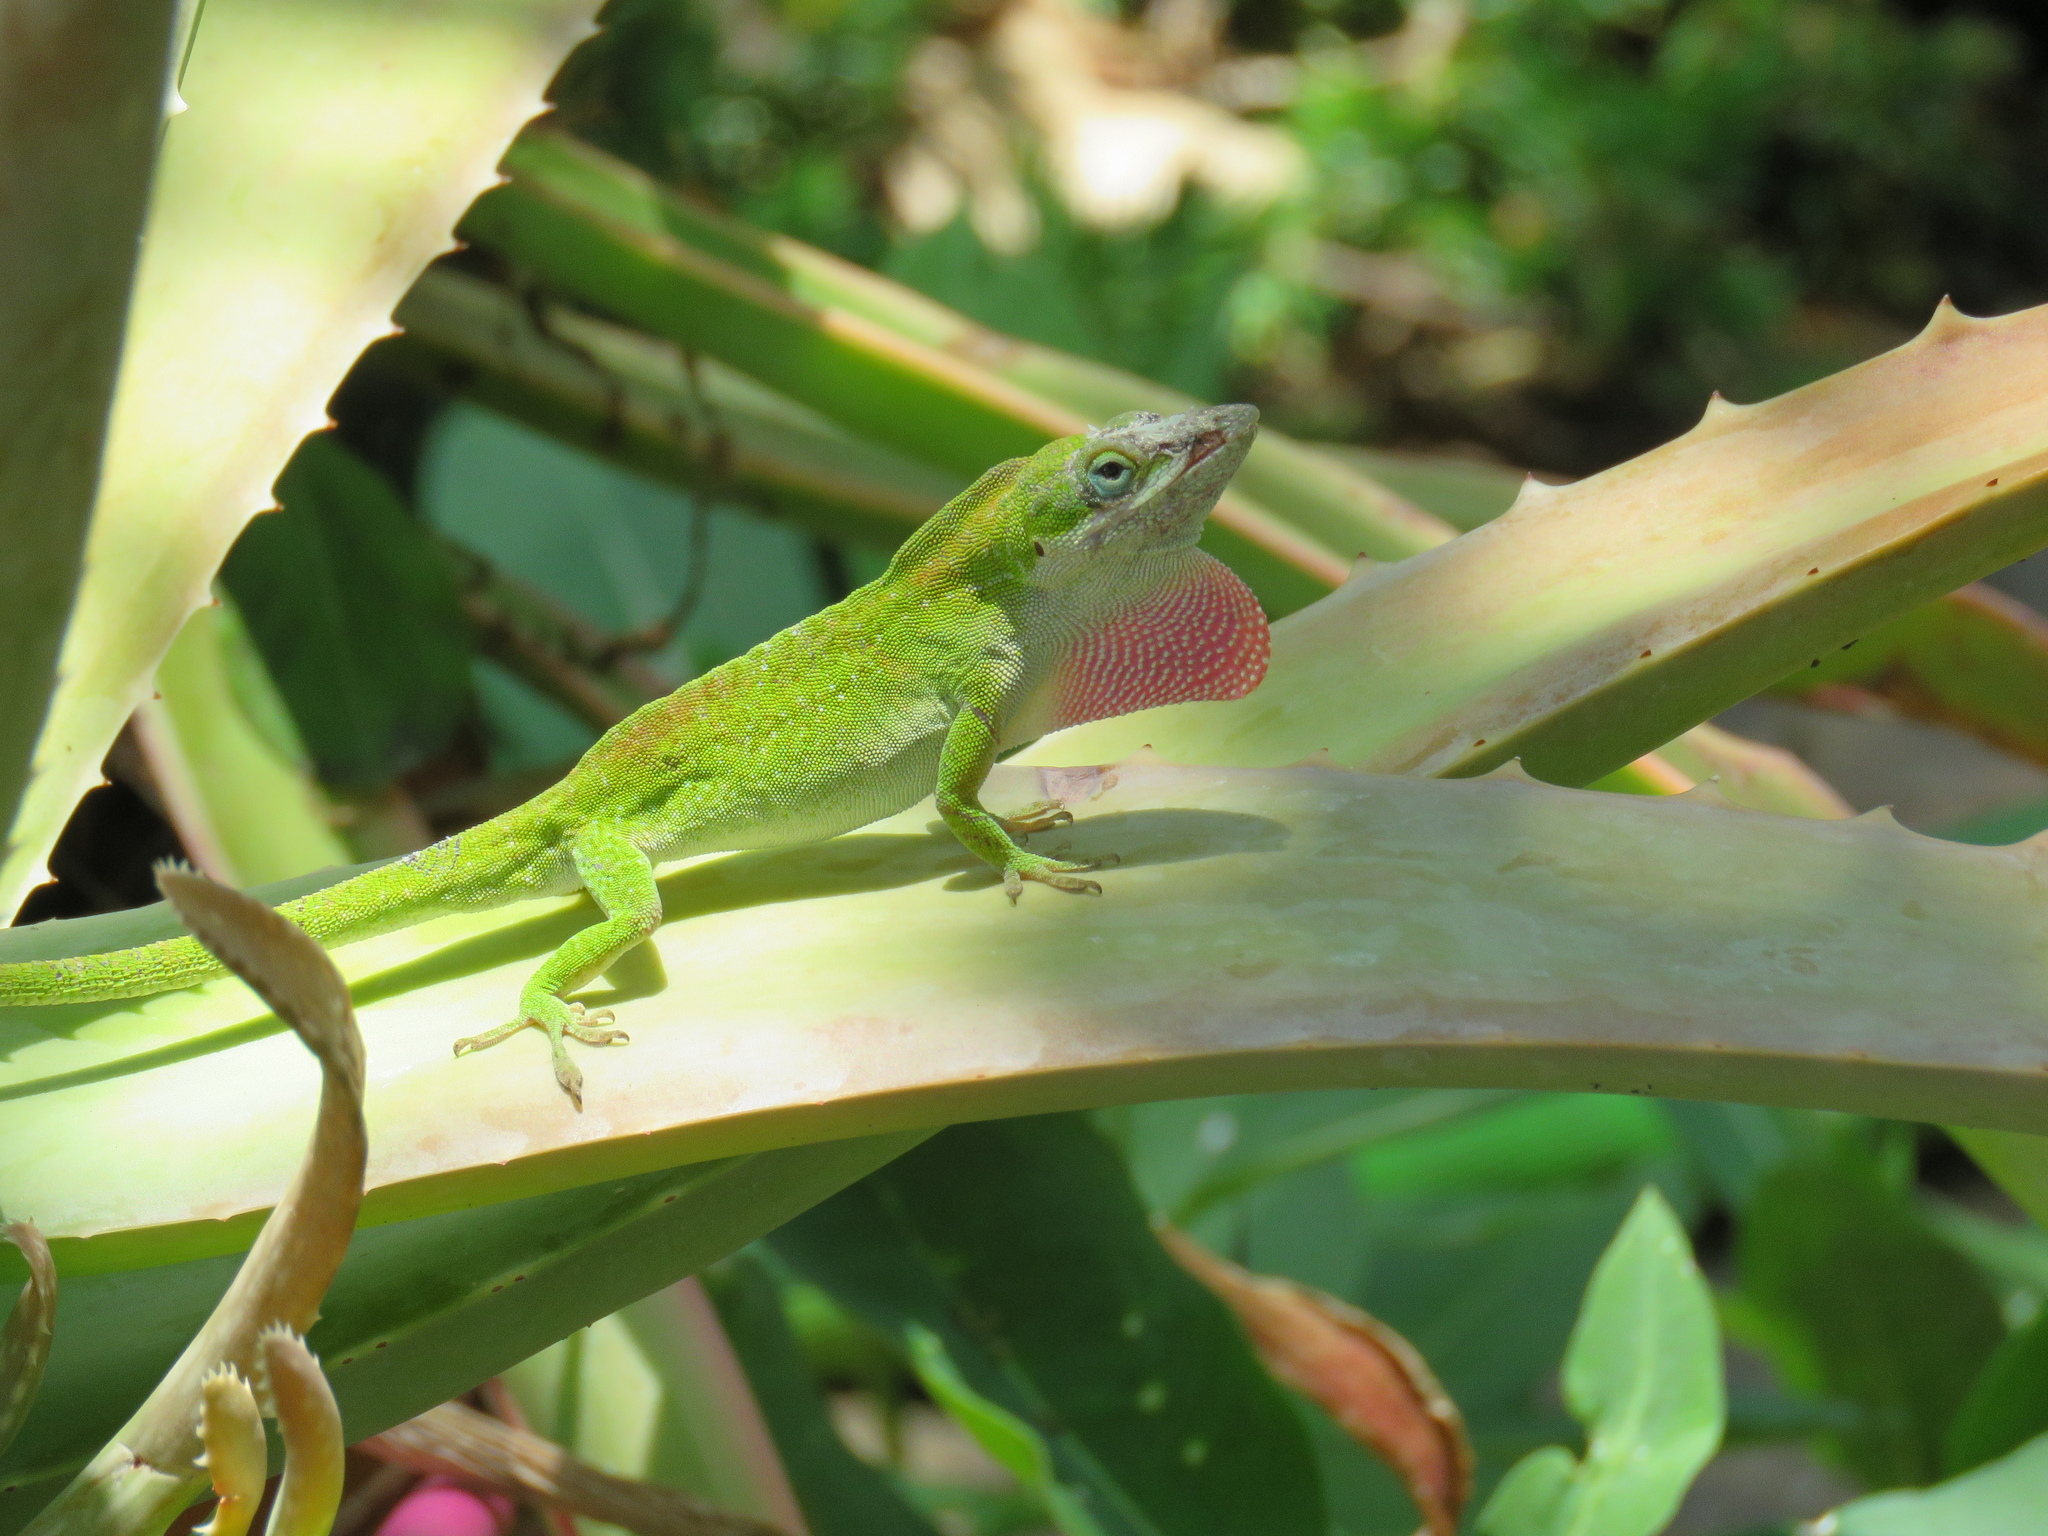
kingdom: Animalia
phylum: Chordata
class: Squamata
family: Dactyloidae
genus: Anolis
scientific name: Anolis carolinensis
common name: Green anole
